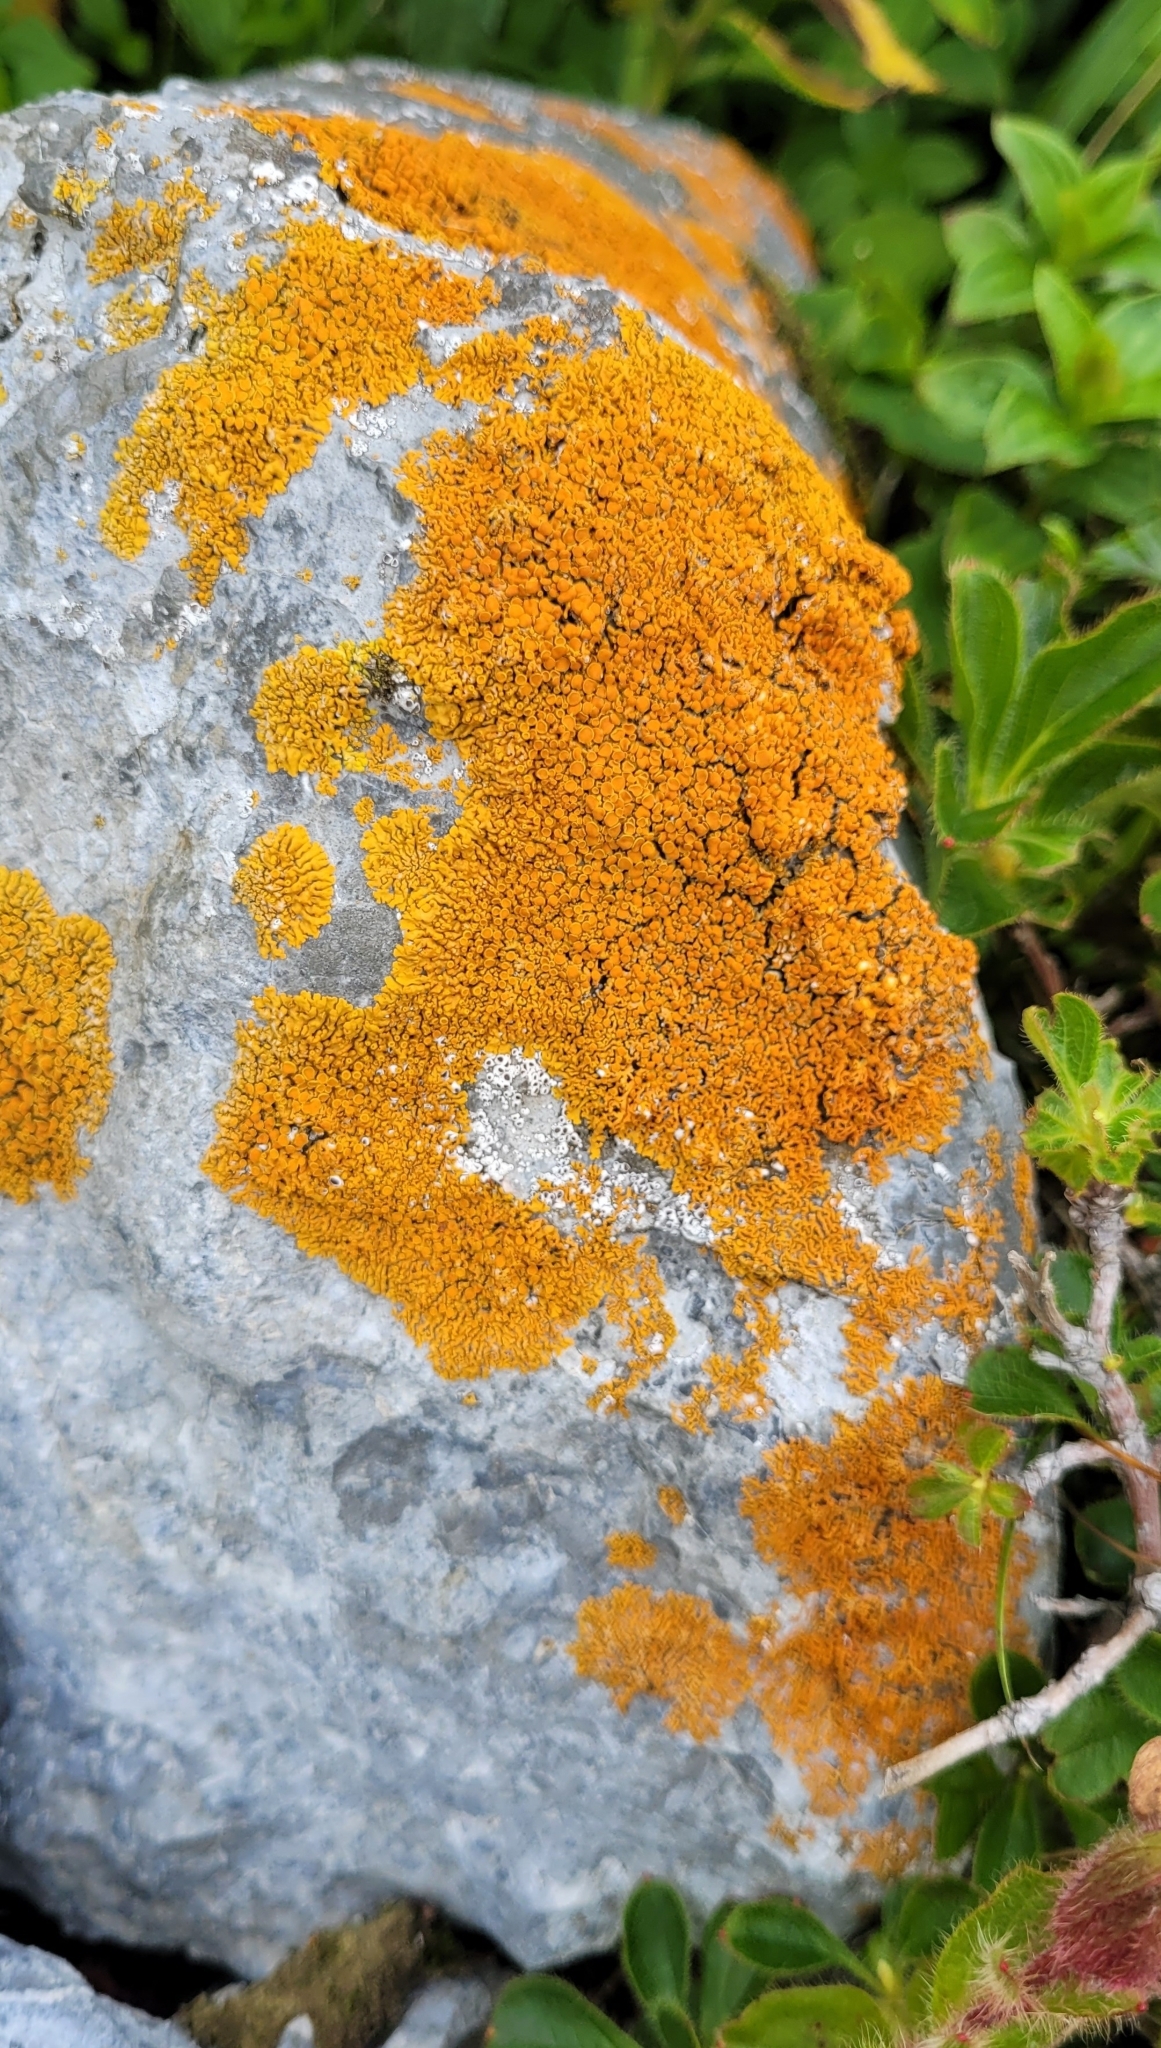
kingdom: Fungi
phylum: Ascomycota
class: Lecanoromycetes
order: Teloschistales
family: Teloschistaceae
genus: Xanthoria
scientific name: Xanthoria elegans
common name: Elegant sunburst lichen
